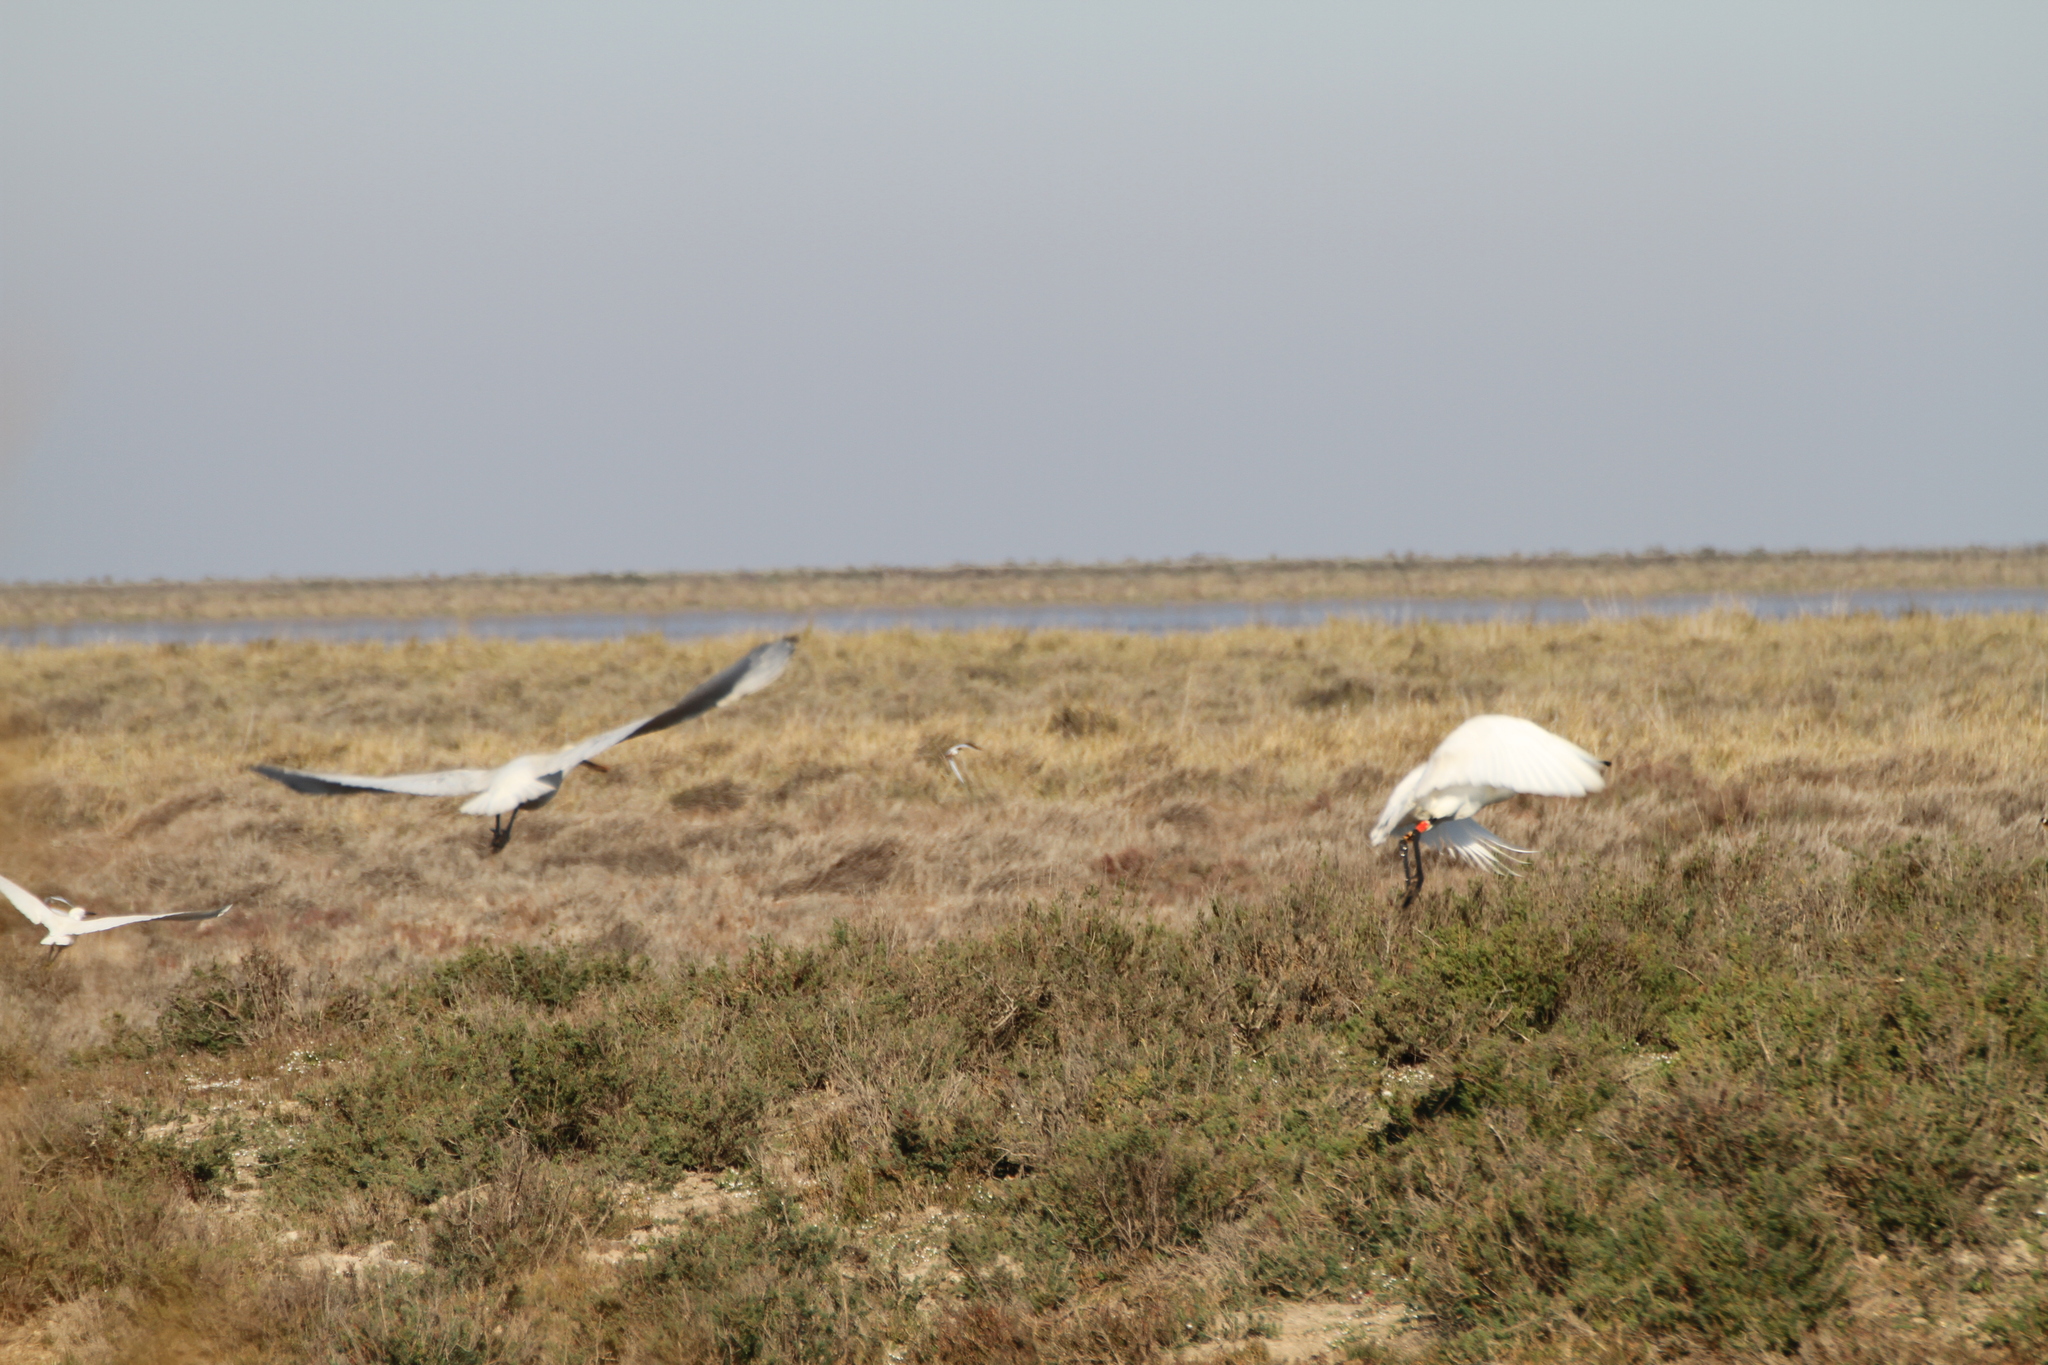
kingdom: Animalia
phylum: Chordata
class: Aves
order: Pelecaniformes
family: Threskiornithidae
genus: Platalea
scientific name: Platalea leucorodia
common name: Eurasian spoonbill
